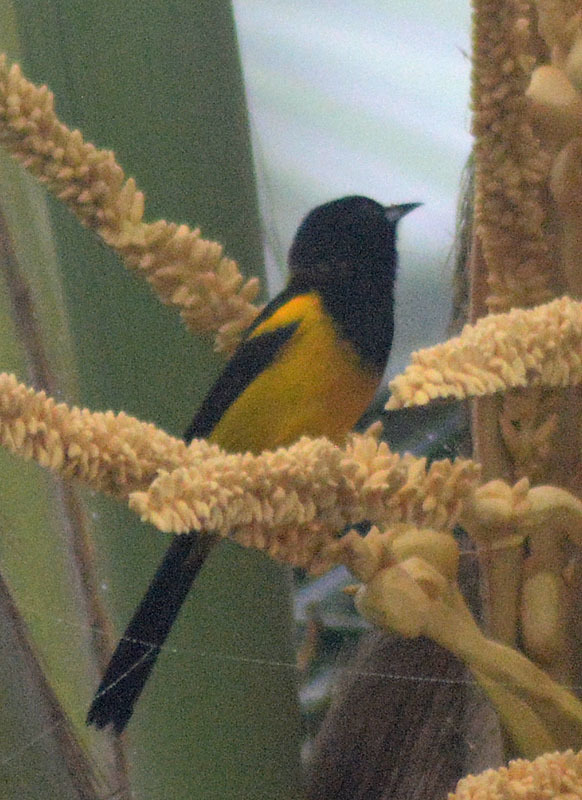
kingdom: Animalia
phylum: Chordata
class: Aves
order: Passeriformes
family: Icteridae
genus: Icterus
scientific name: Icterus prosthemelas
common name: Black-cowled oriole
